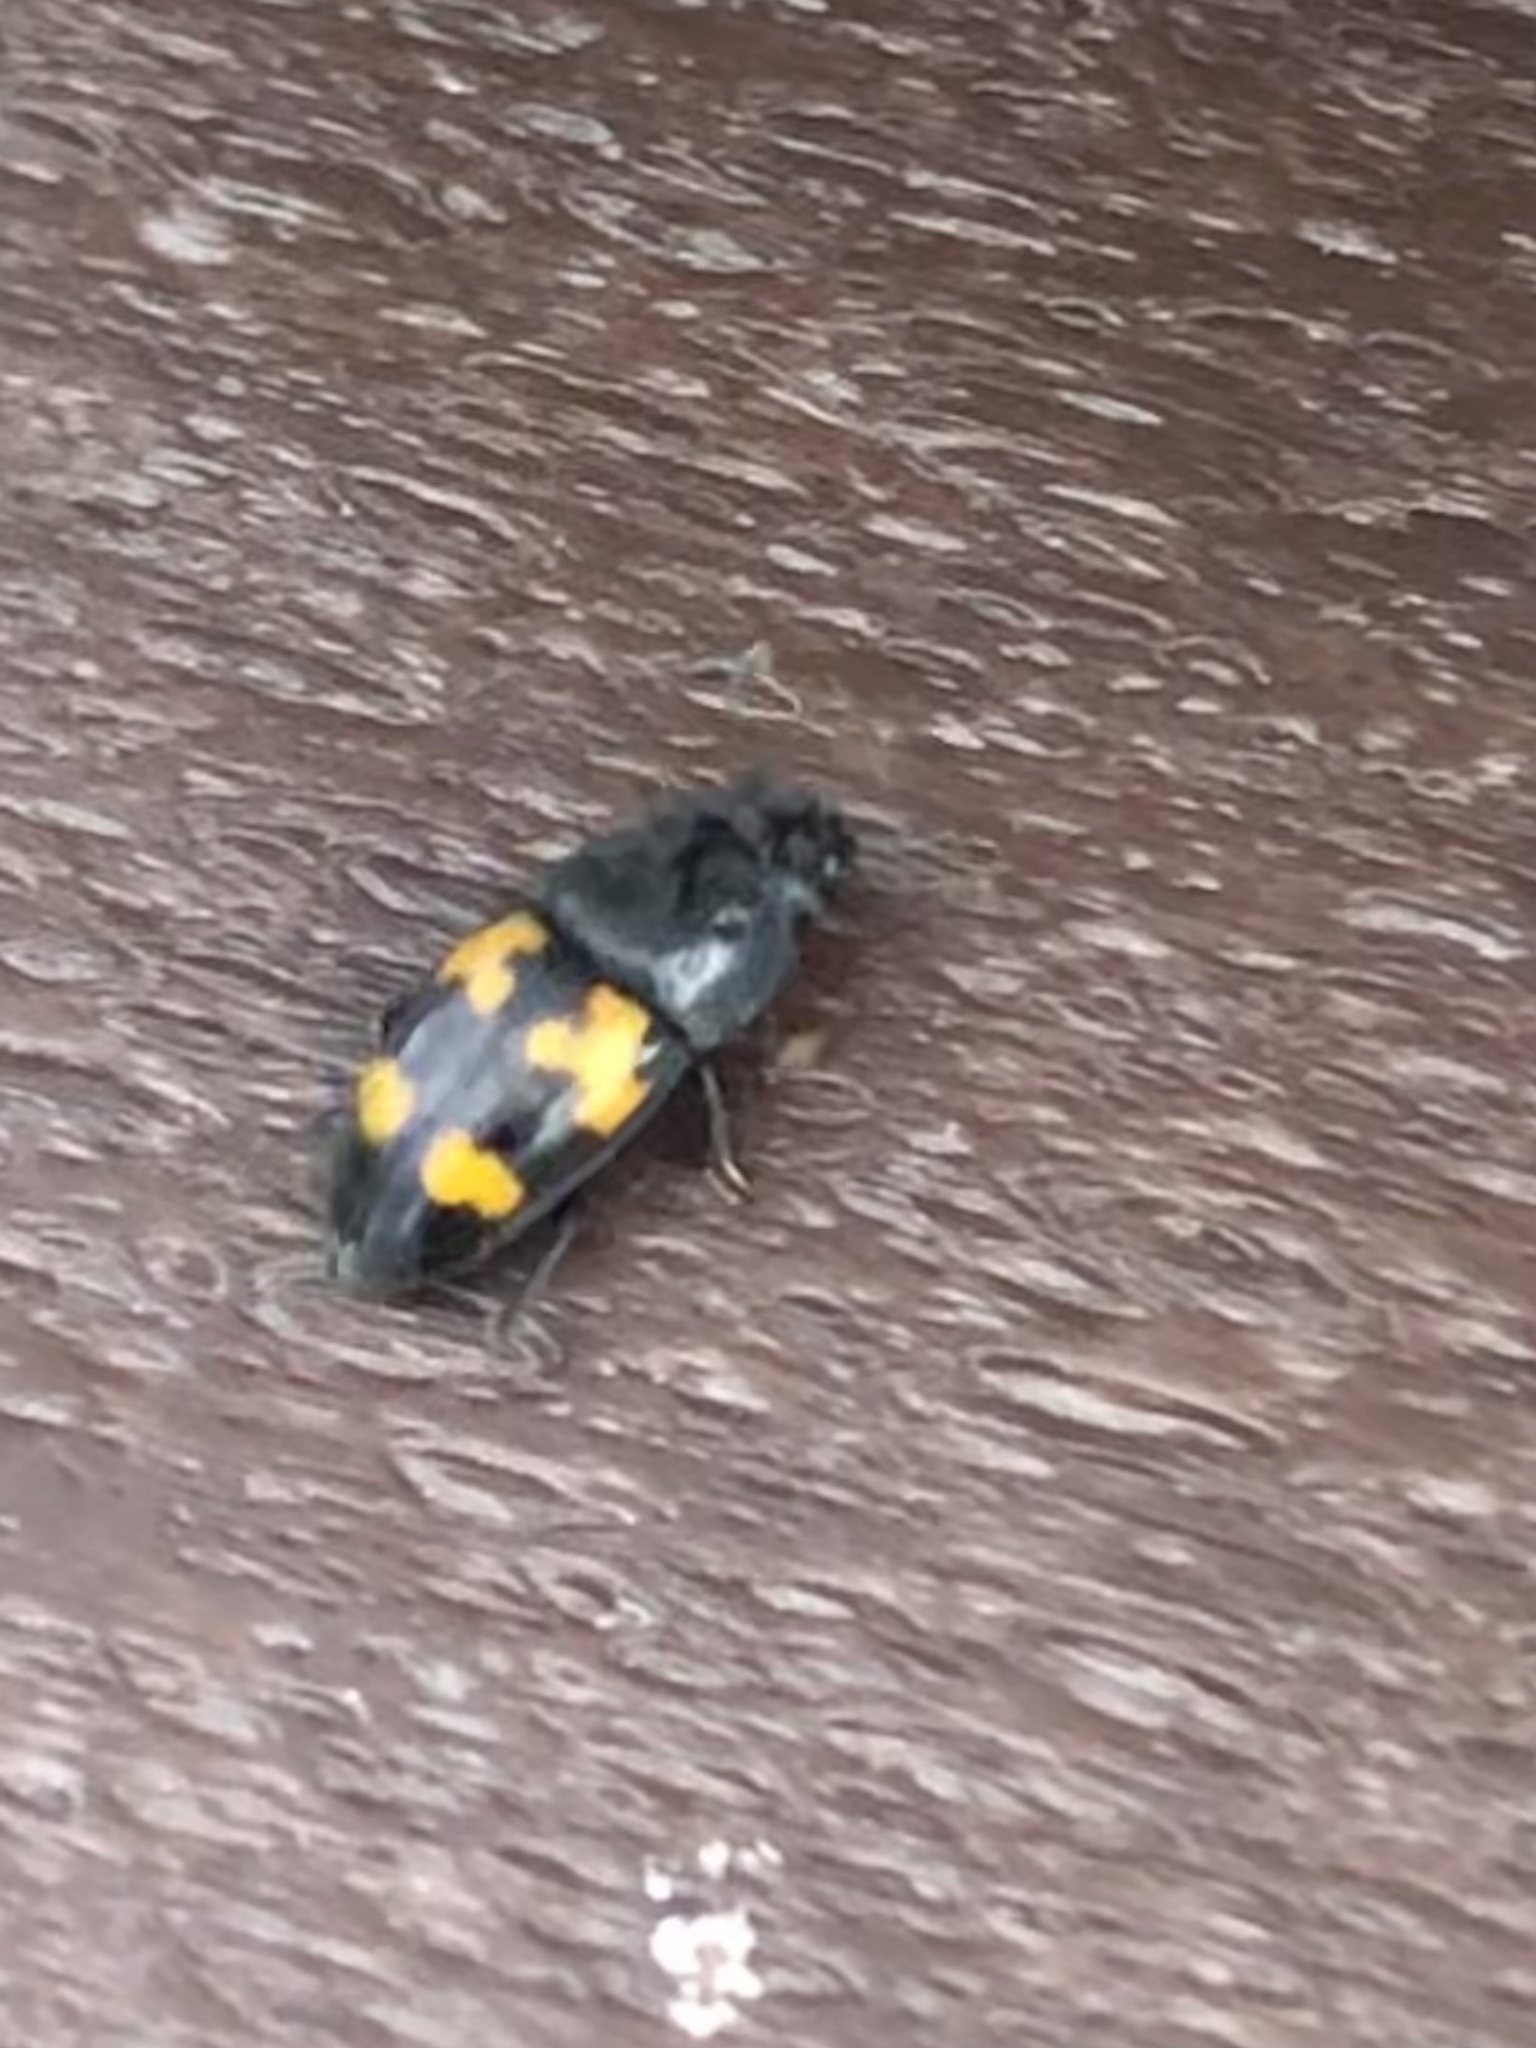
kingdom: Animalia
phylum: Arthropoda
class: Insecta
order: Coleoptera
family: Nitidulidae
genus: Glischrochilus
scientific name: Glischrochilus fasciatus
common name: Picnic beetle
